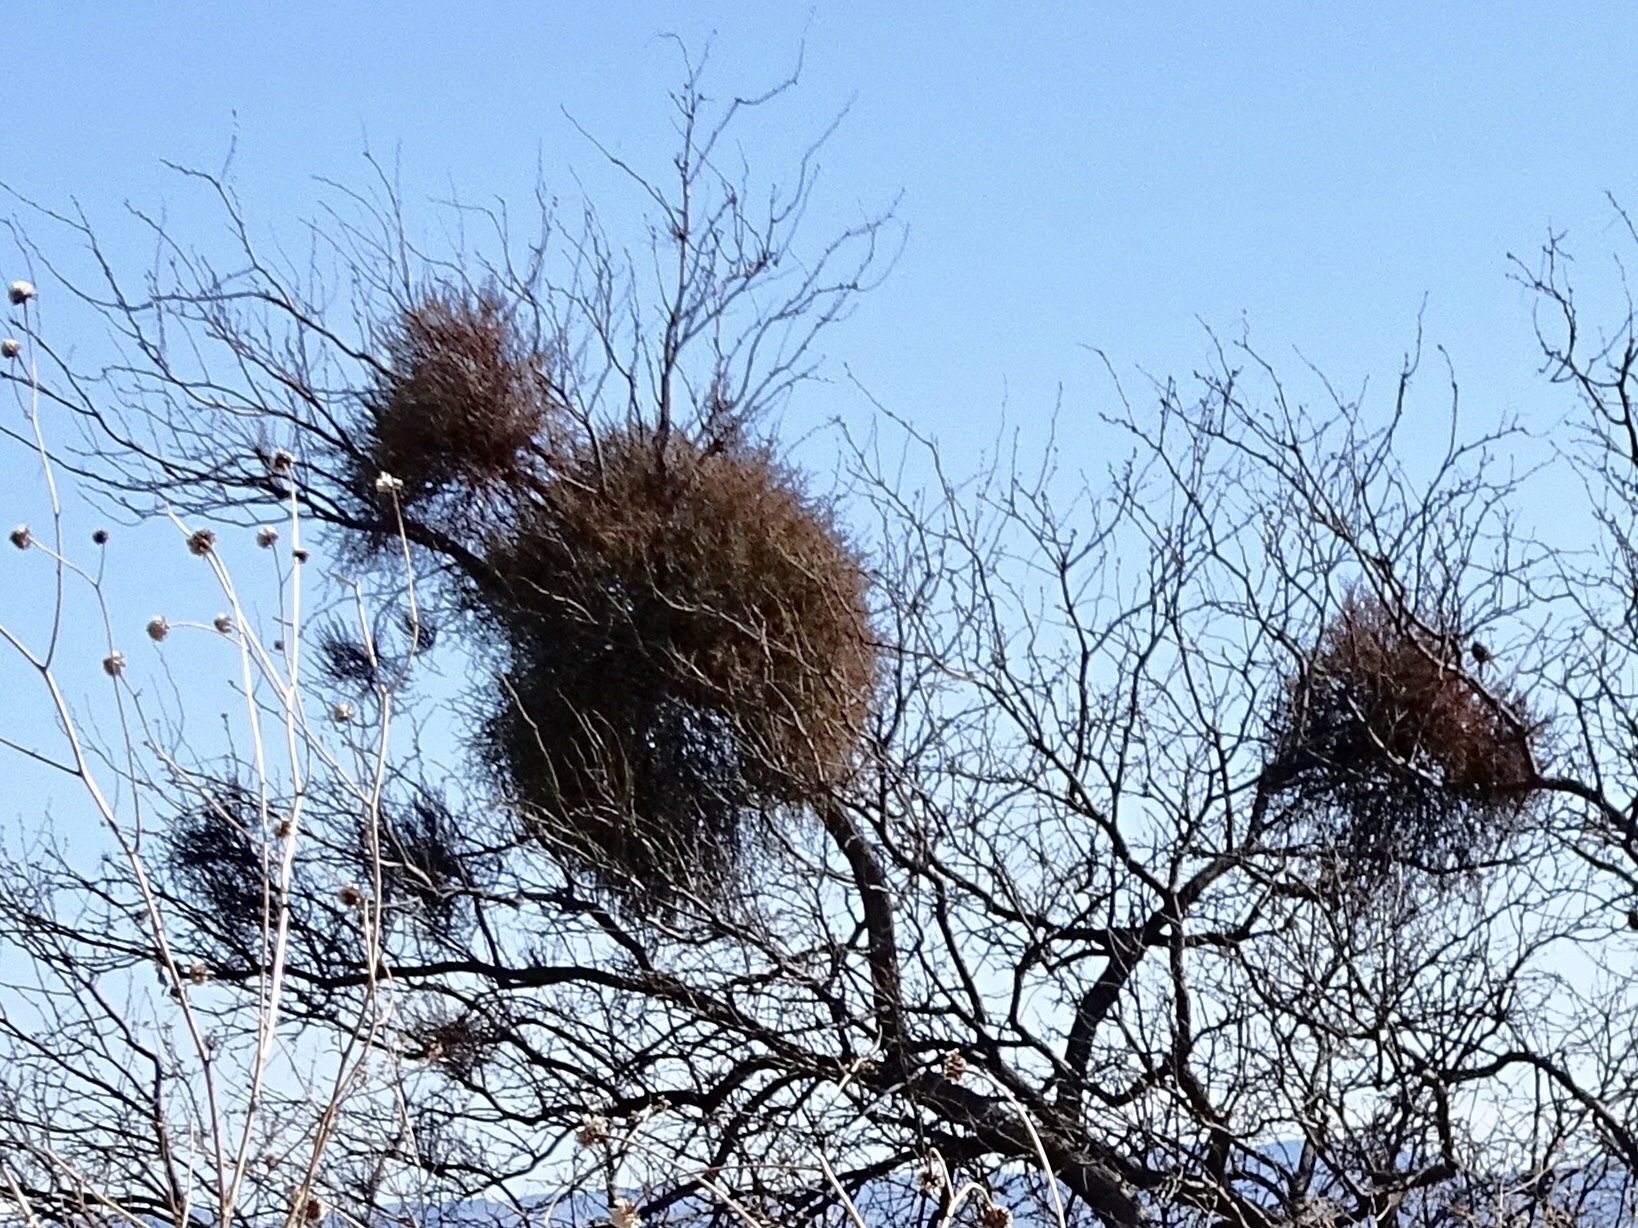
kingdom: Plantae
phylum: Tracheophyta
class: Magnoliopsida
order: Santalales
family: Viscaceae
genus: Phoradendron
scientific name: Phoradendron californicum
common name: Acacia mistletoe
